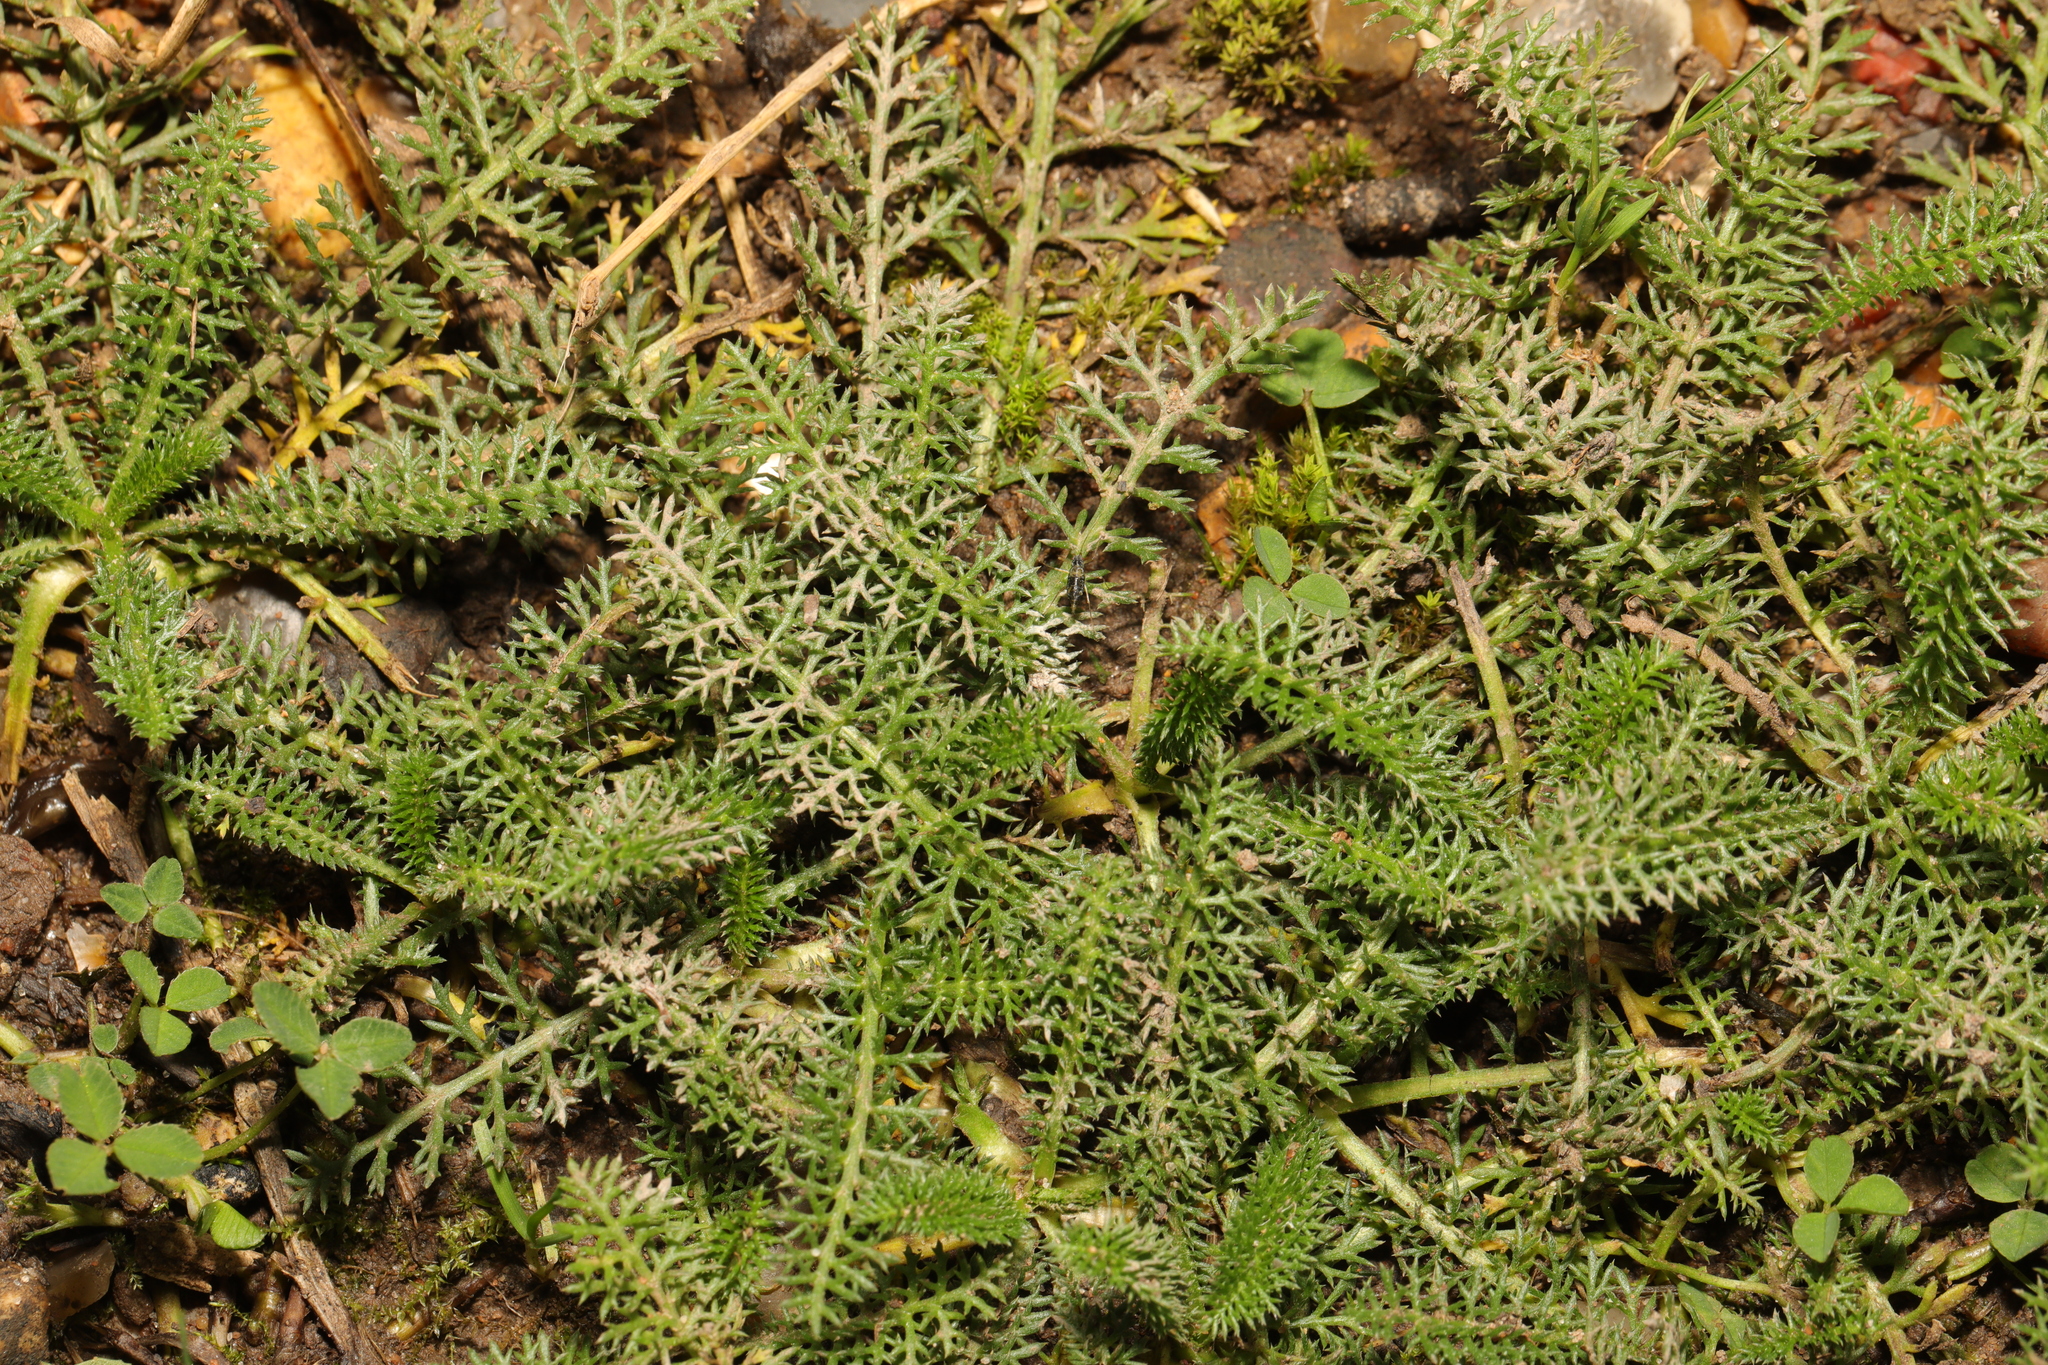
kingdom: Plantae
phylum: Tracheophyta
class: Magnoliopsida
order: Asterales
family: Asteraceae
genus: Achillea
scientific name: Achillea millefolium
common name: Yarrow
